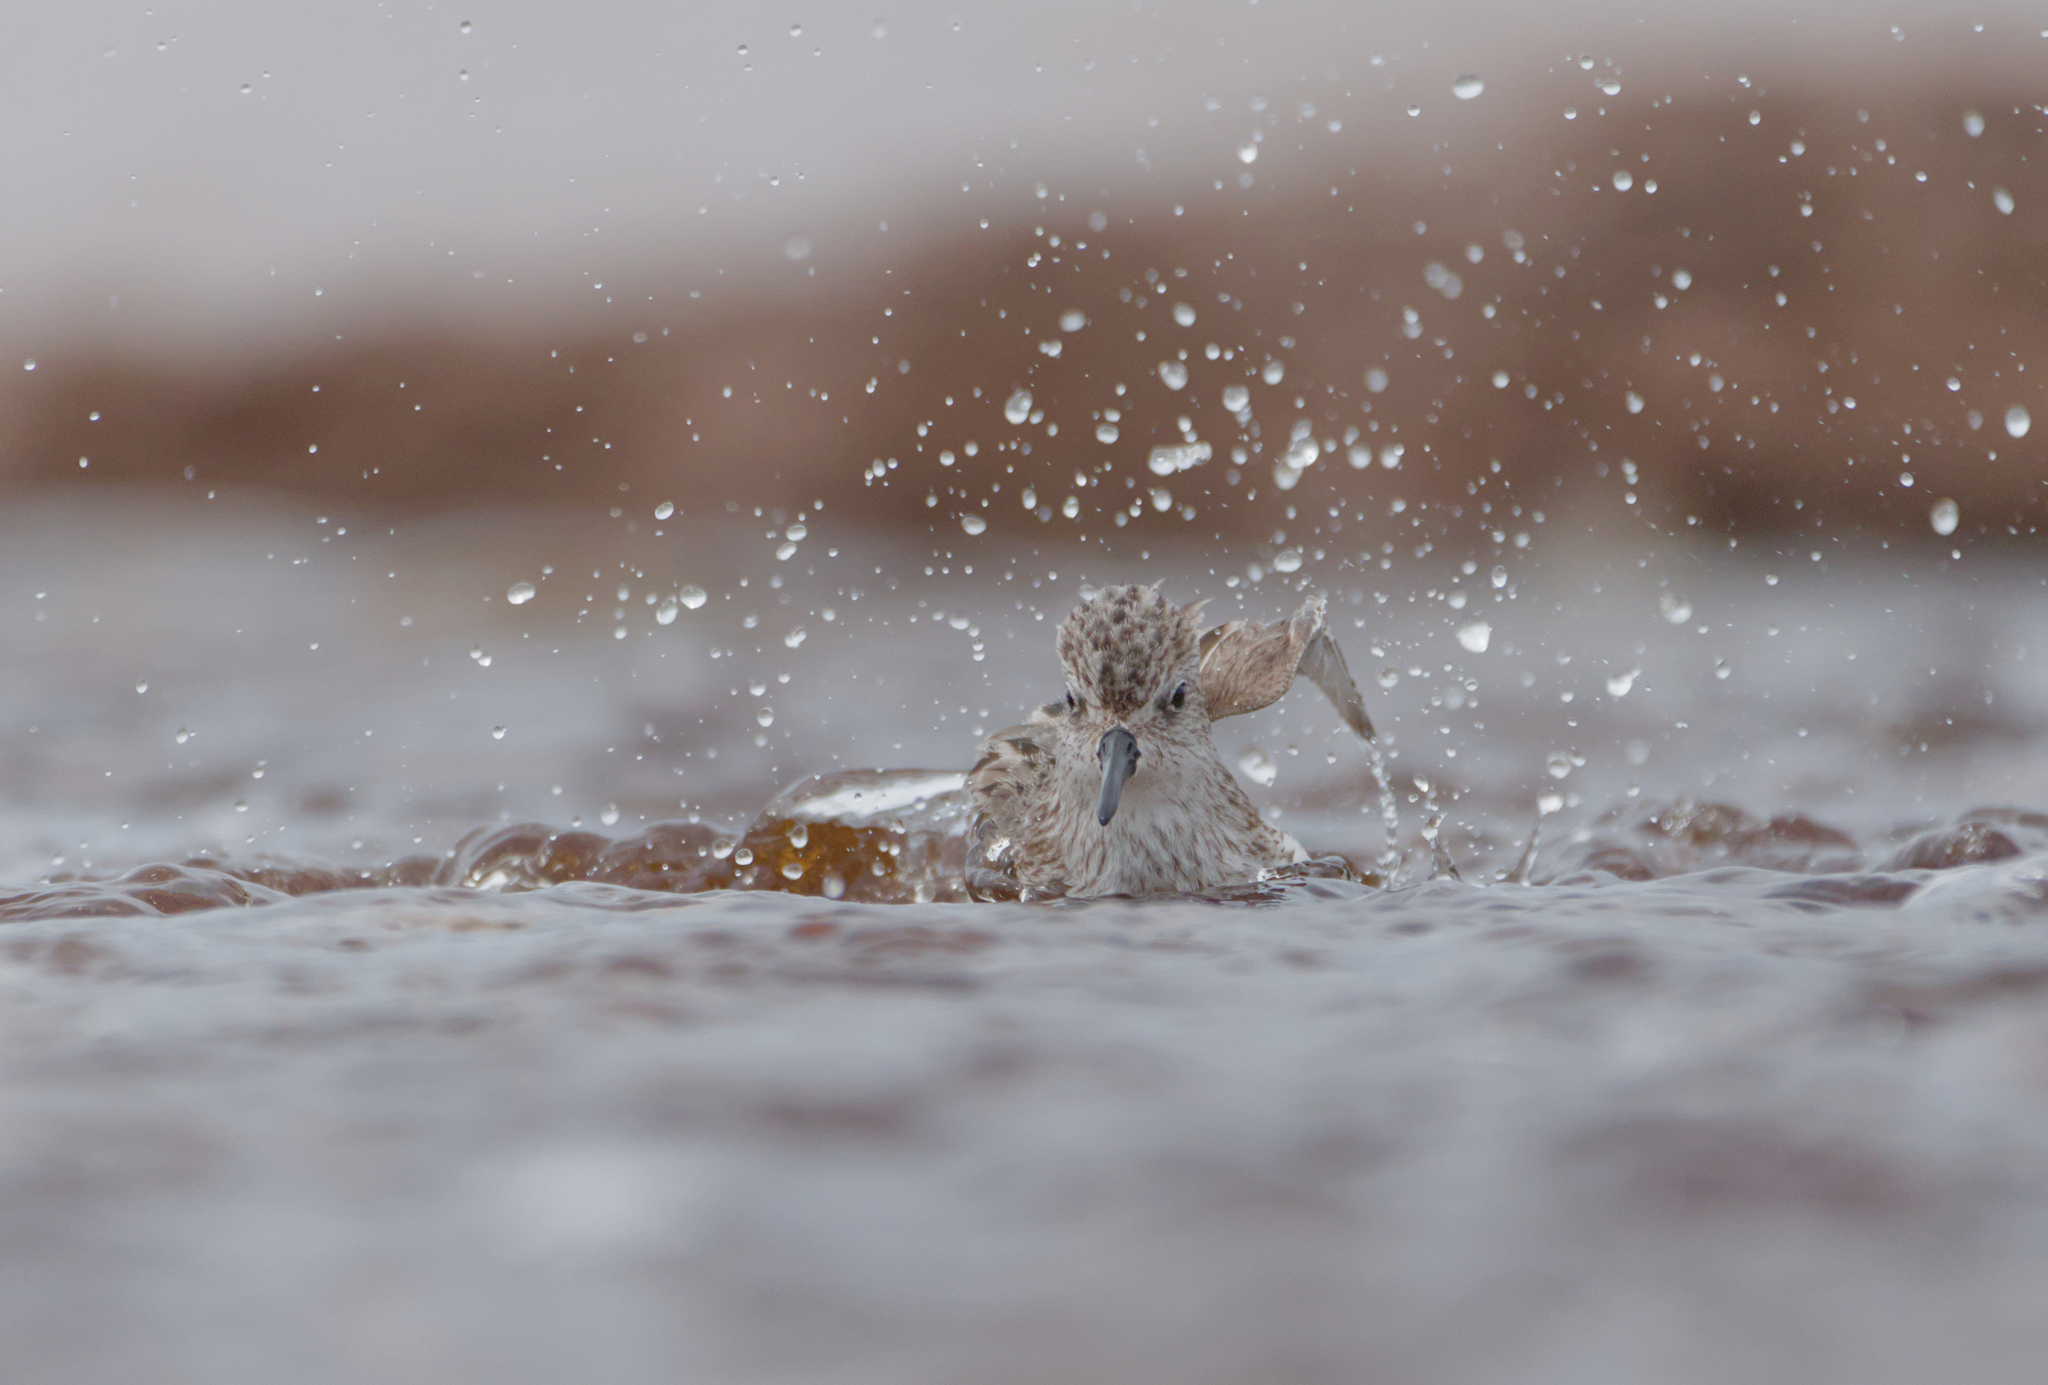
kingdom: Animalia
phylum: Chordata
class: Aves
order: Charadriiformes
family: Scolopacidae
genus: Calidris
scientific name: Calidris pusilla
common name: Semipalmated sandpiper
